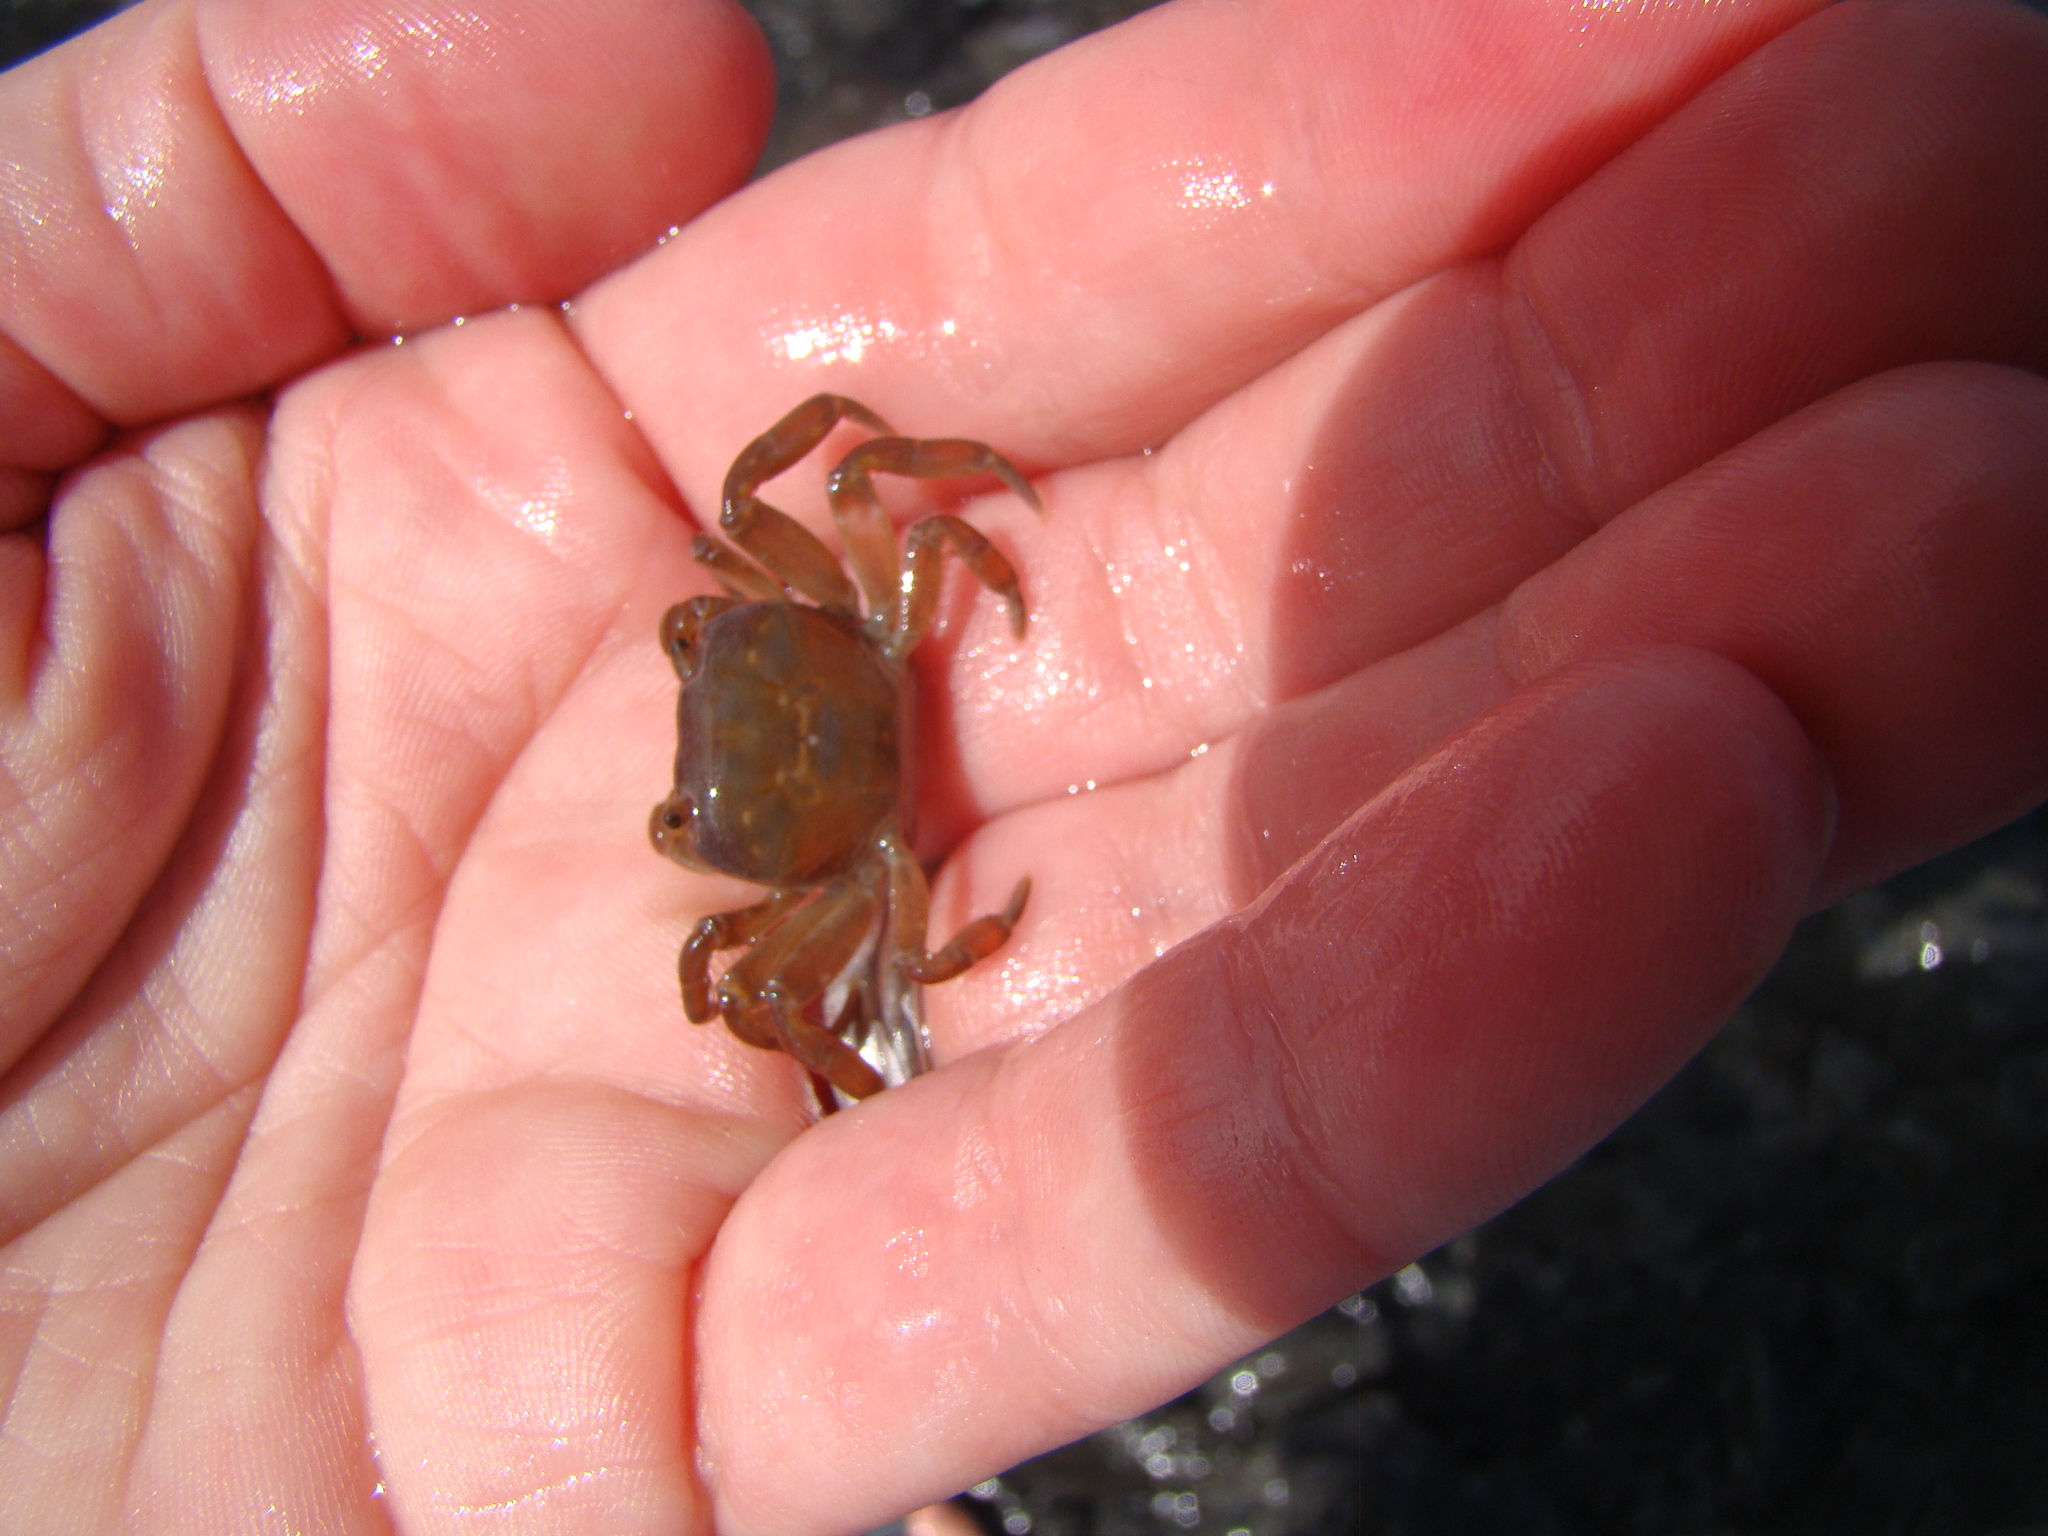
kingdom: Animalia
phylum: Arthropoda
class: Malacostraca
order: Decapoda
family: Varunidae
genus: Cyclograpsus
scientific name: Cyclograpsus lavauxi
